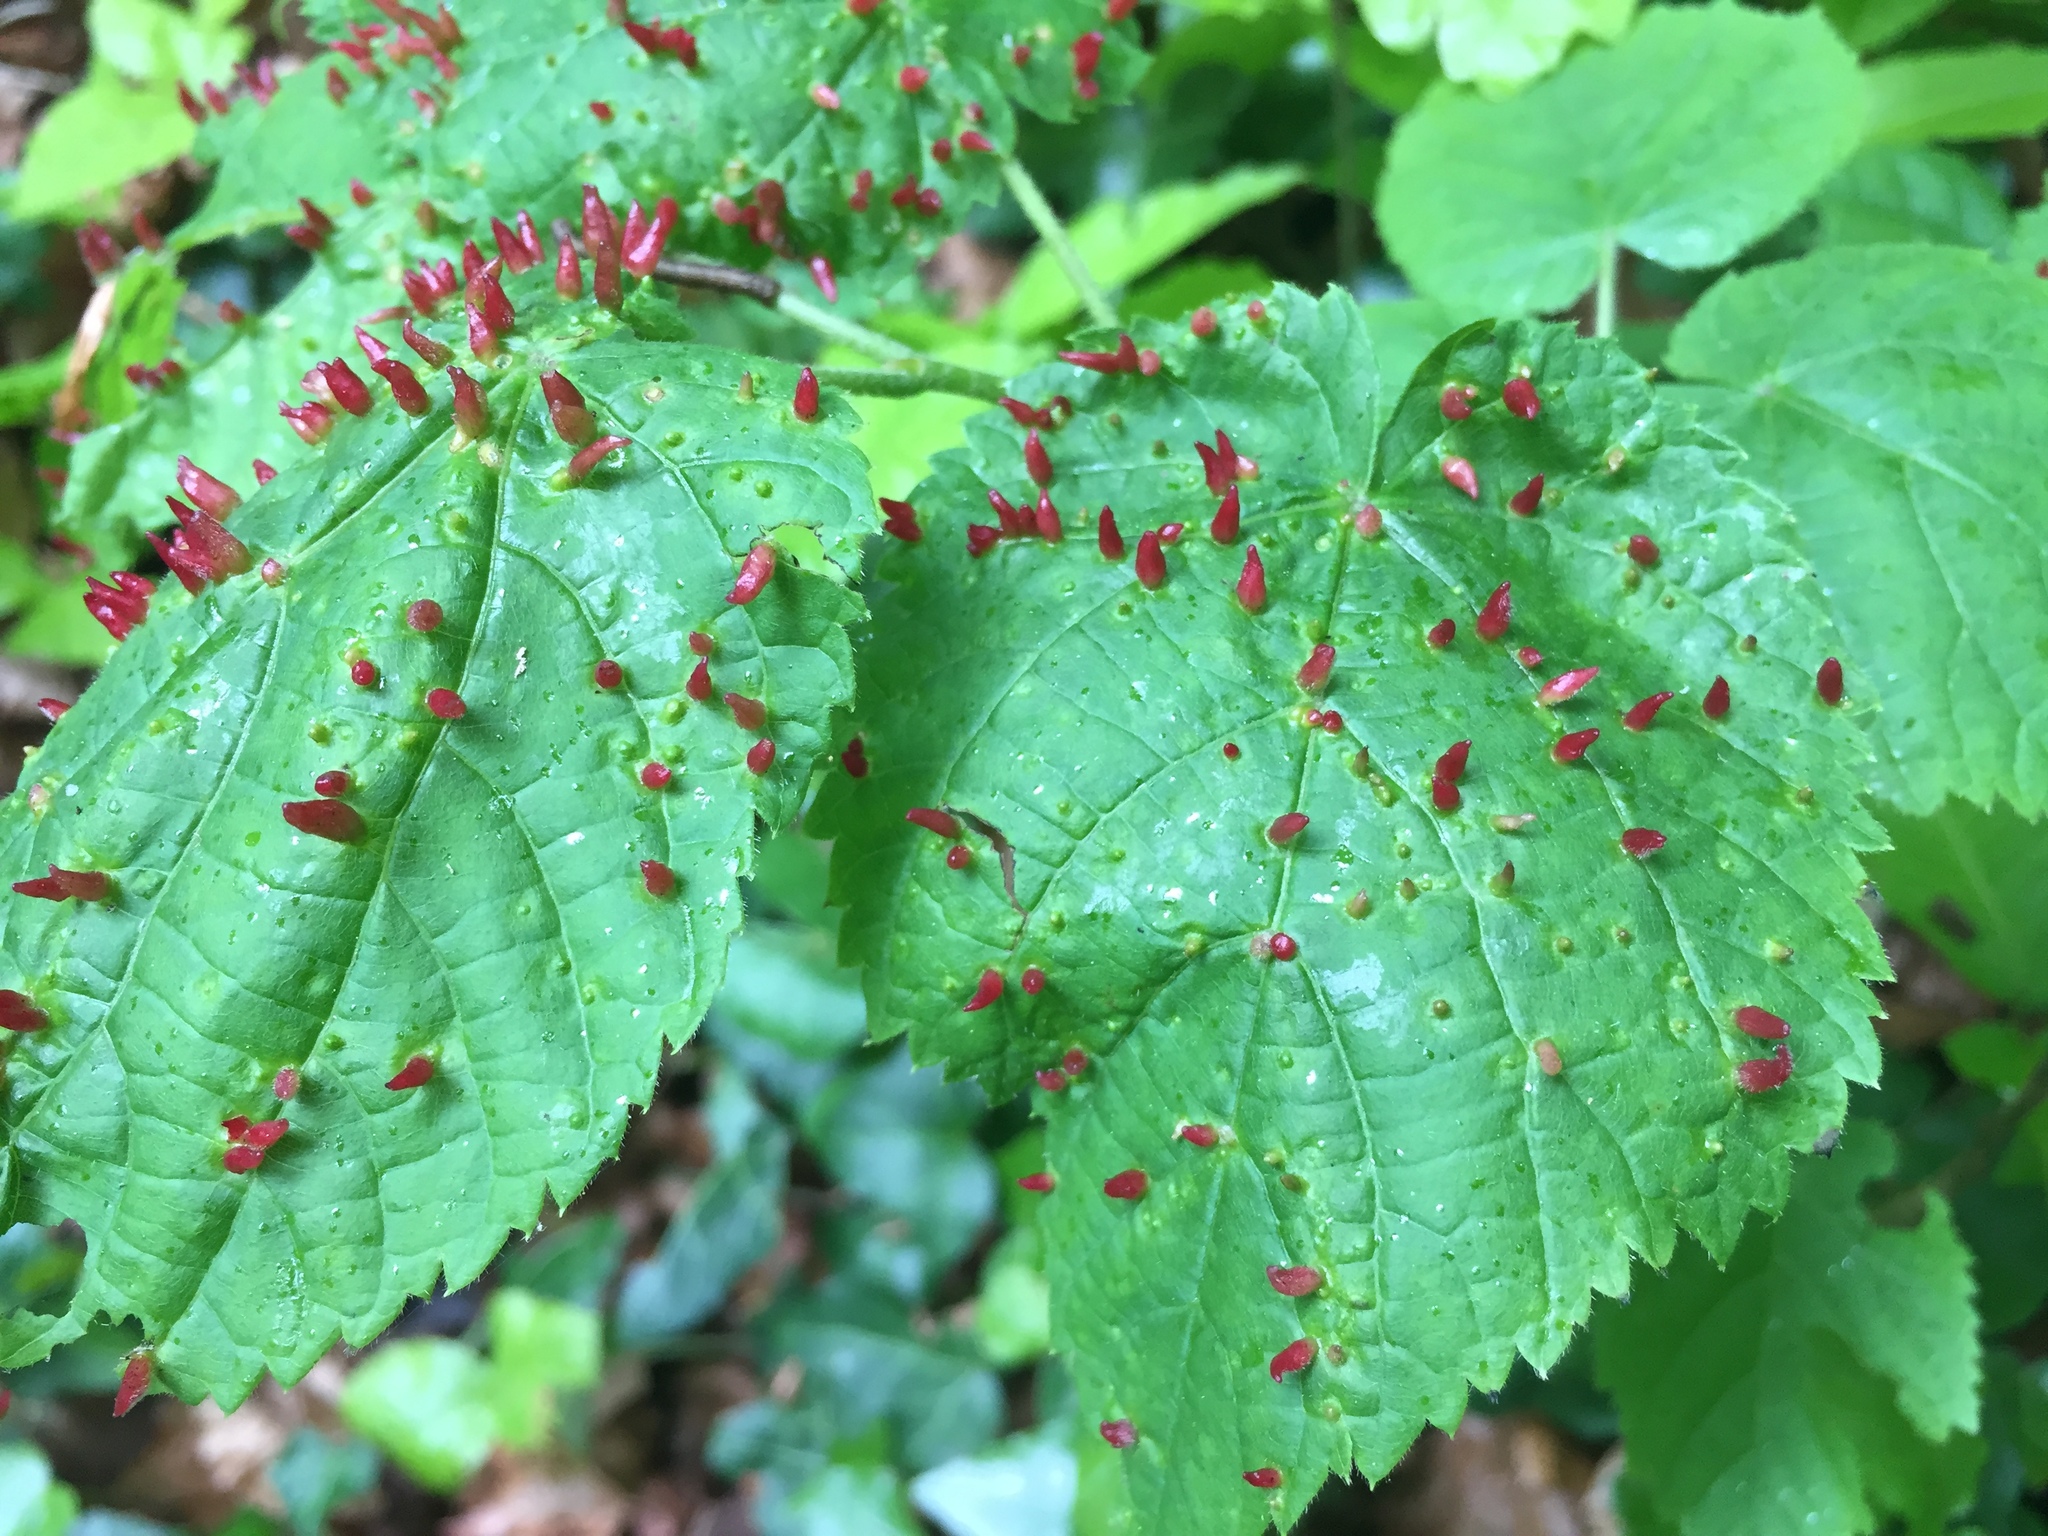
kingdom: Animalia
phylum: Arthropoda
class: Arachnida
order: Trombidiformes
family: Eriophyidae
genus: Eriophyes
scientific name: Eriophyes tiliae
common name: Red nail gall mite
